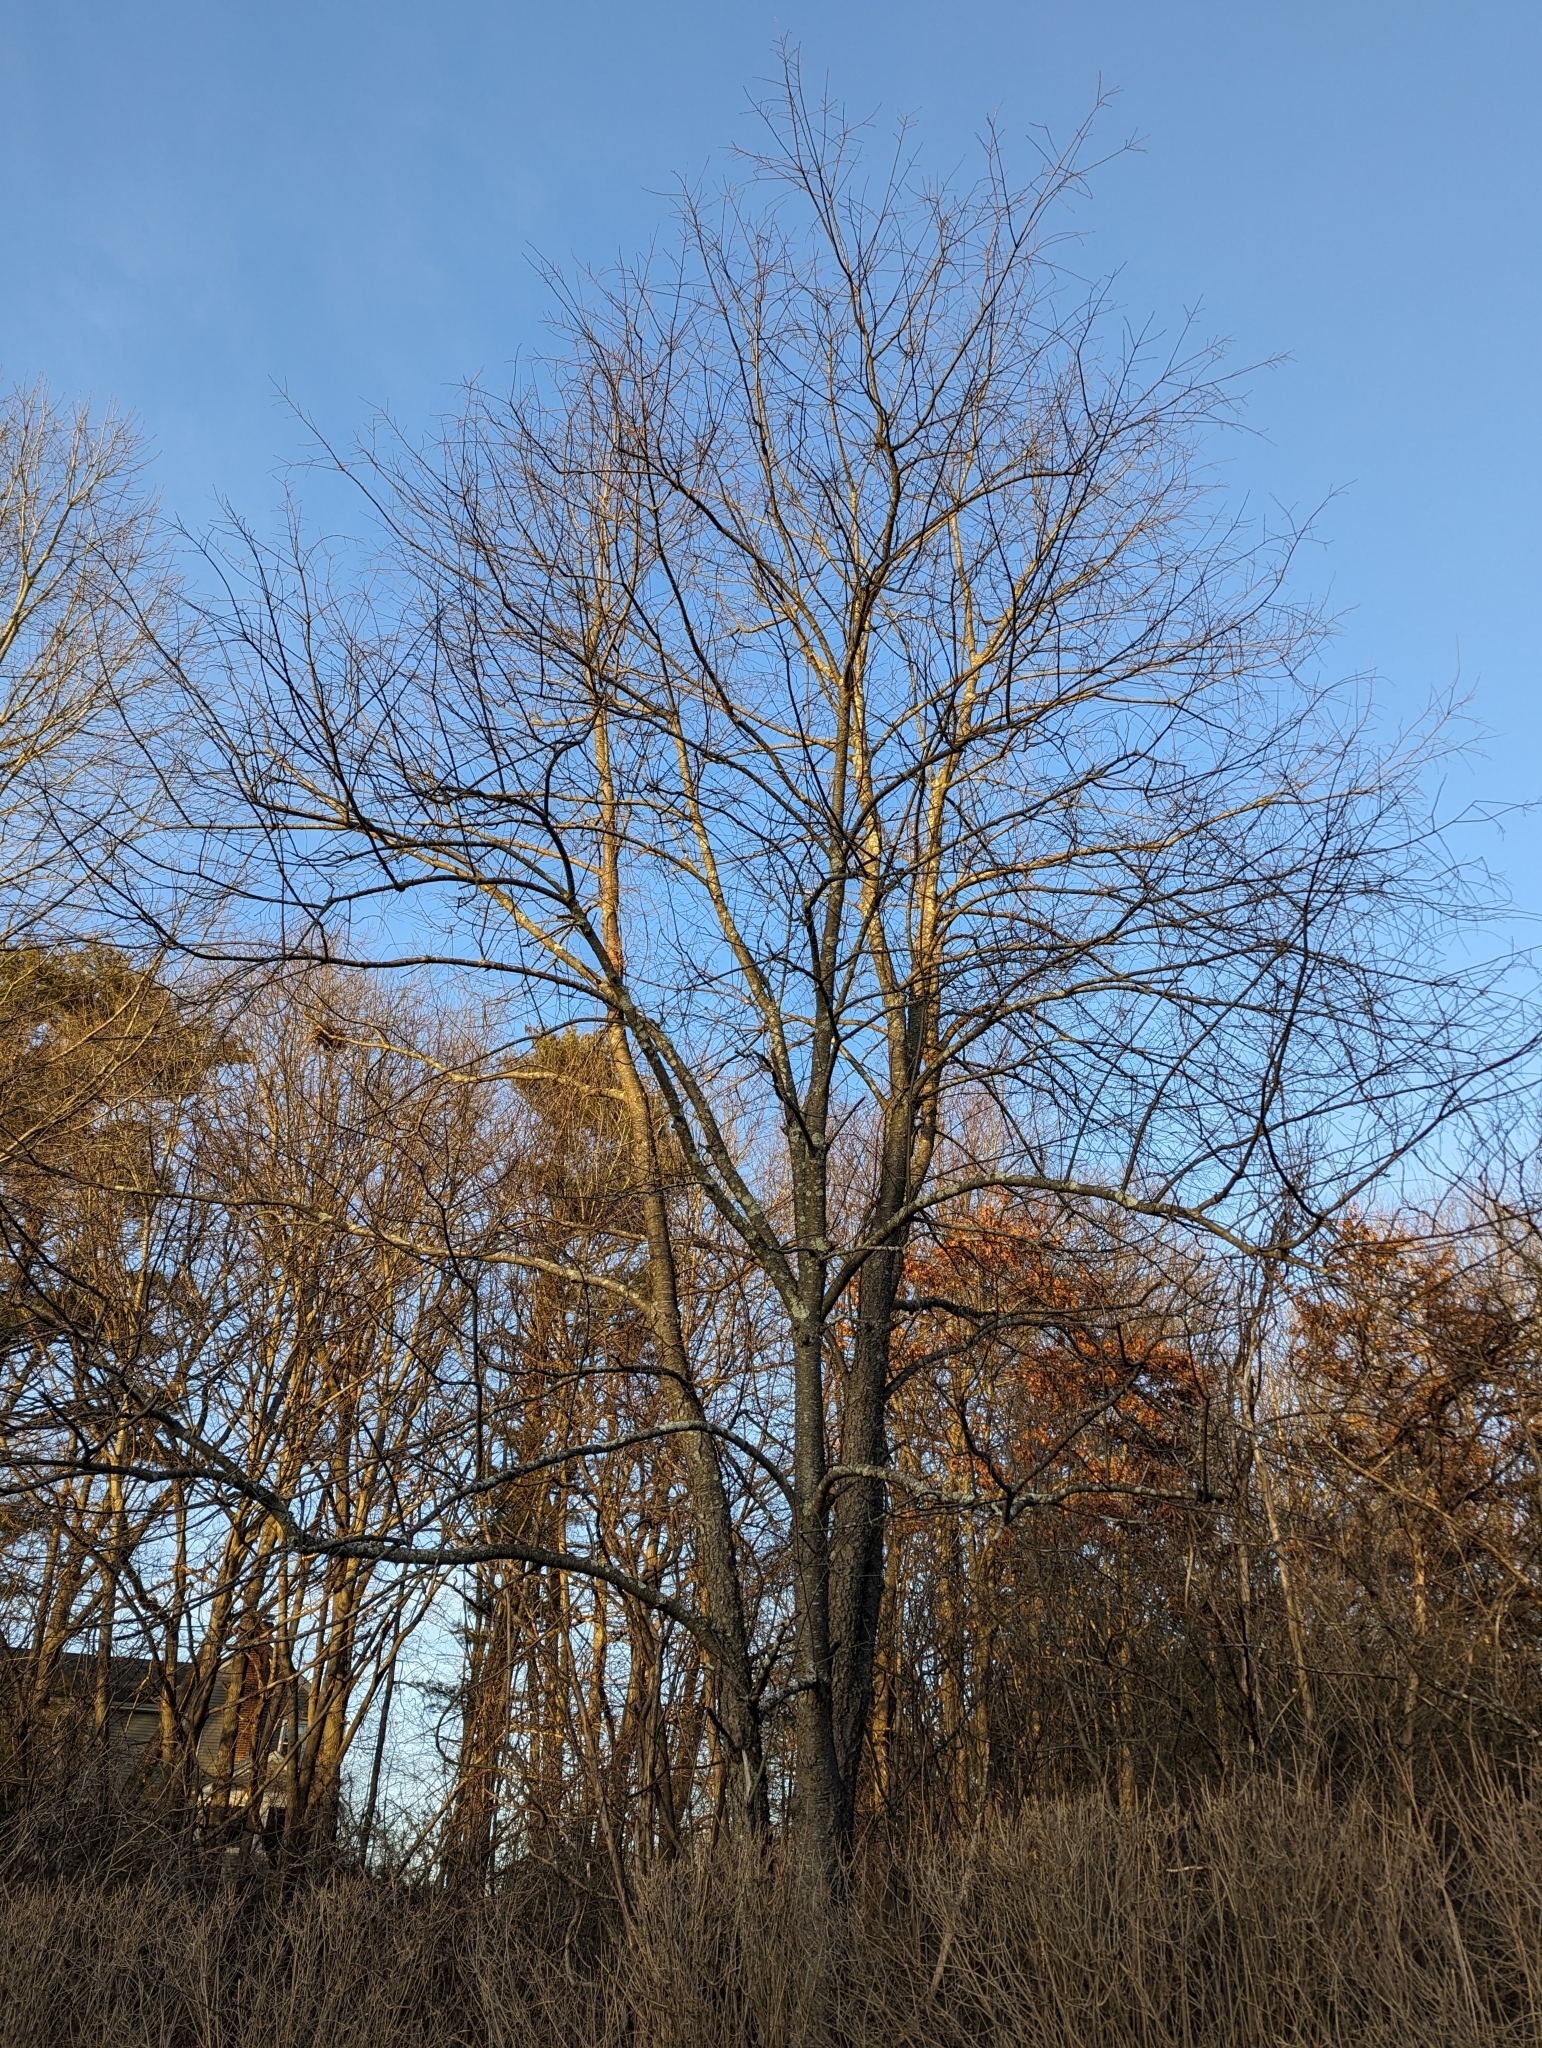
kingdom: Plantae
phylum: Tracheophyta
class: Magnoliopsida
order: Rosales
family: Rosaceae
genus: Prunus
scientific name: Prunus serotina
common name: Black cherry
